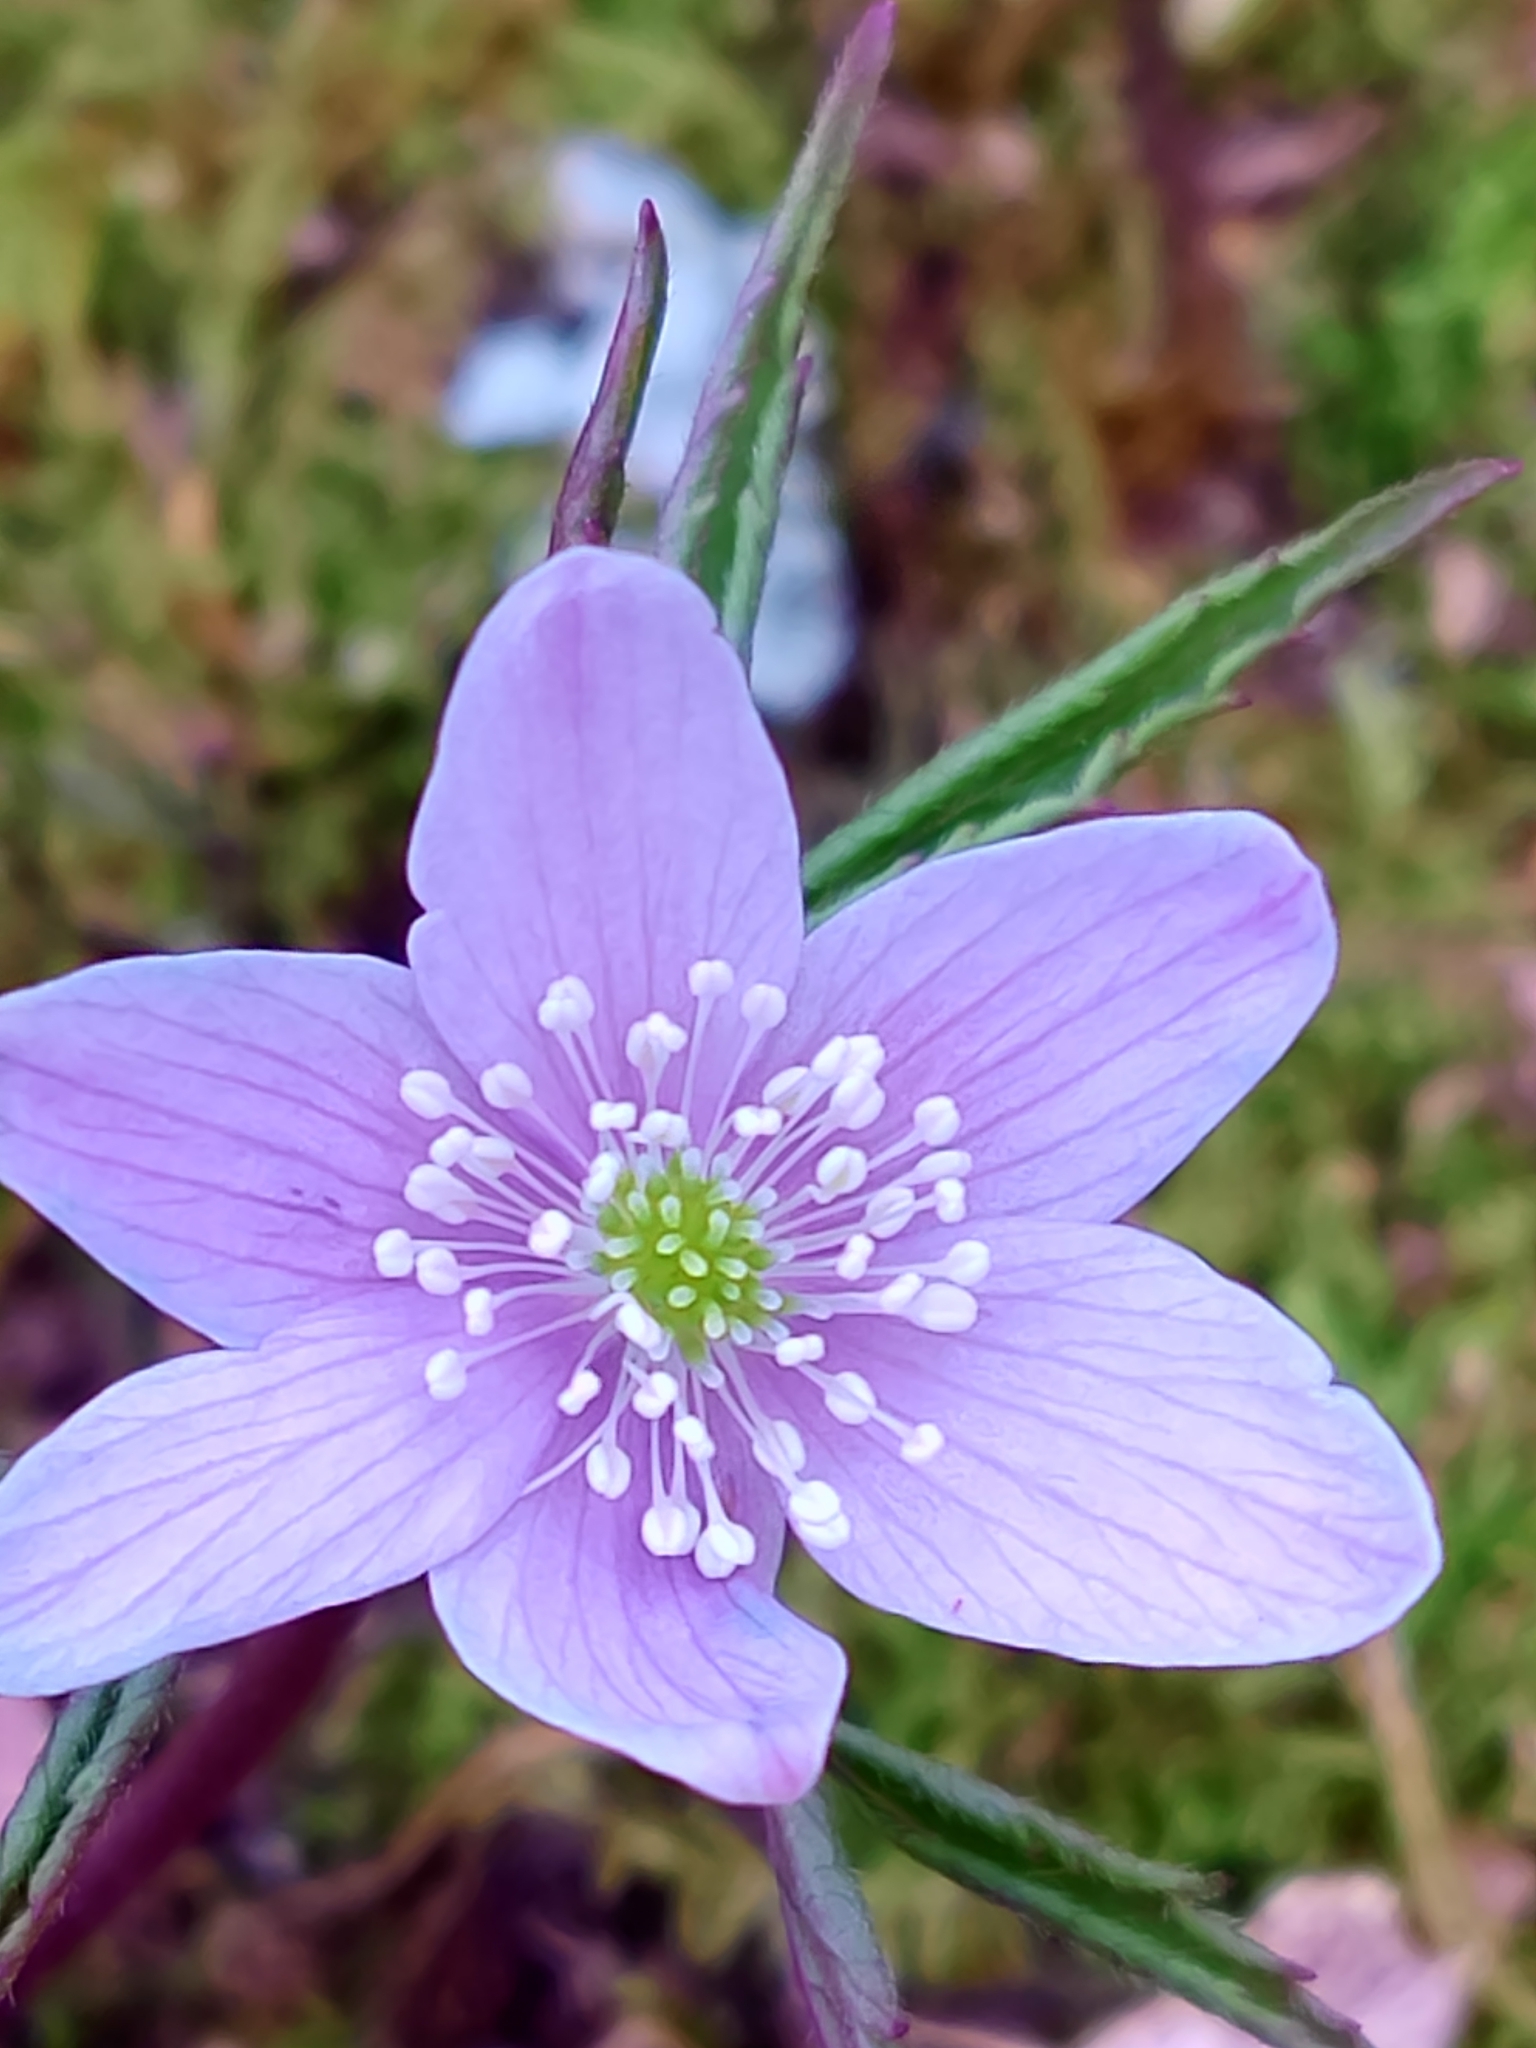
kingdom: Plantae
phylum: Tracheophyta
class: Magnoliopsida
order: Ranunculales
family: Ranunculaceae
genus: Anemone
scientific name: Anemone trifolia
